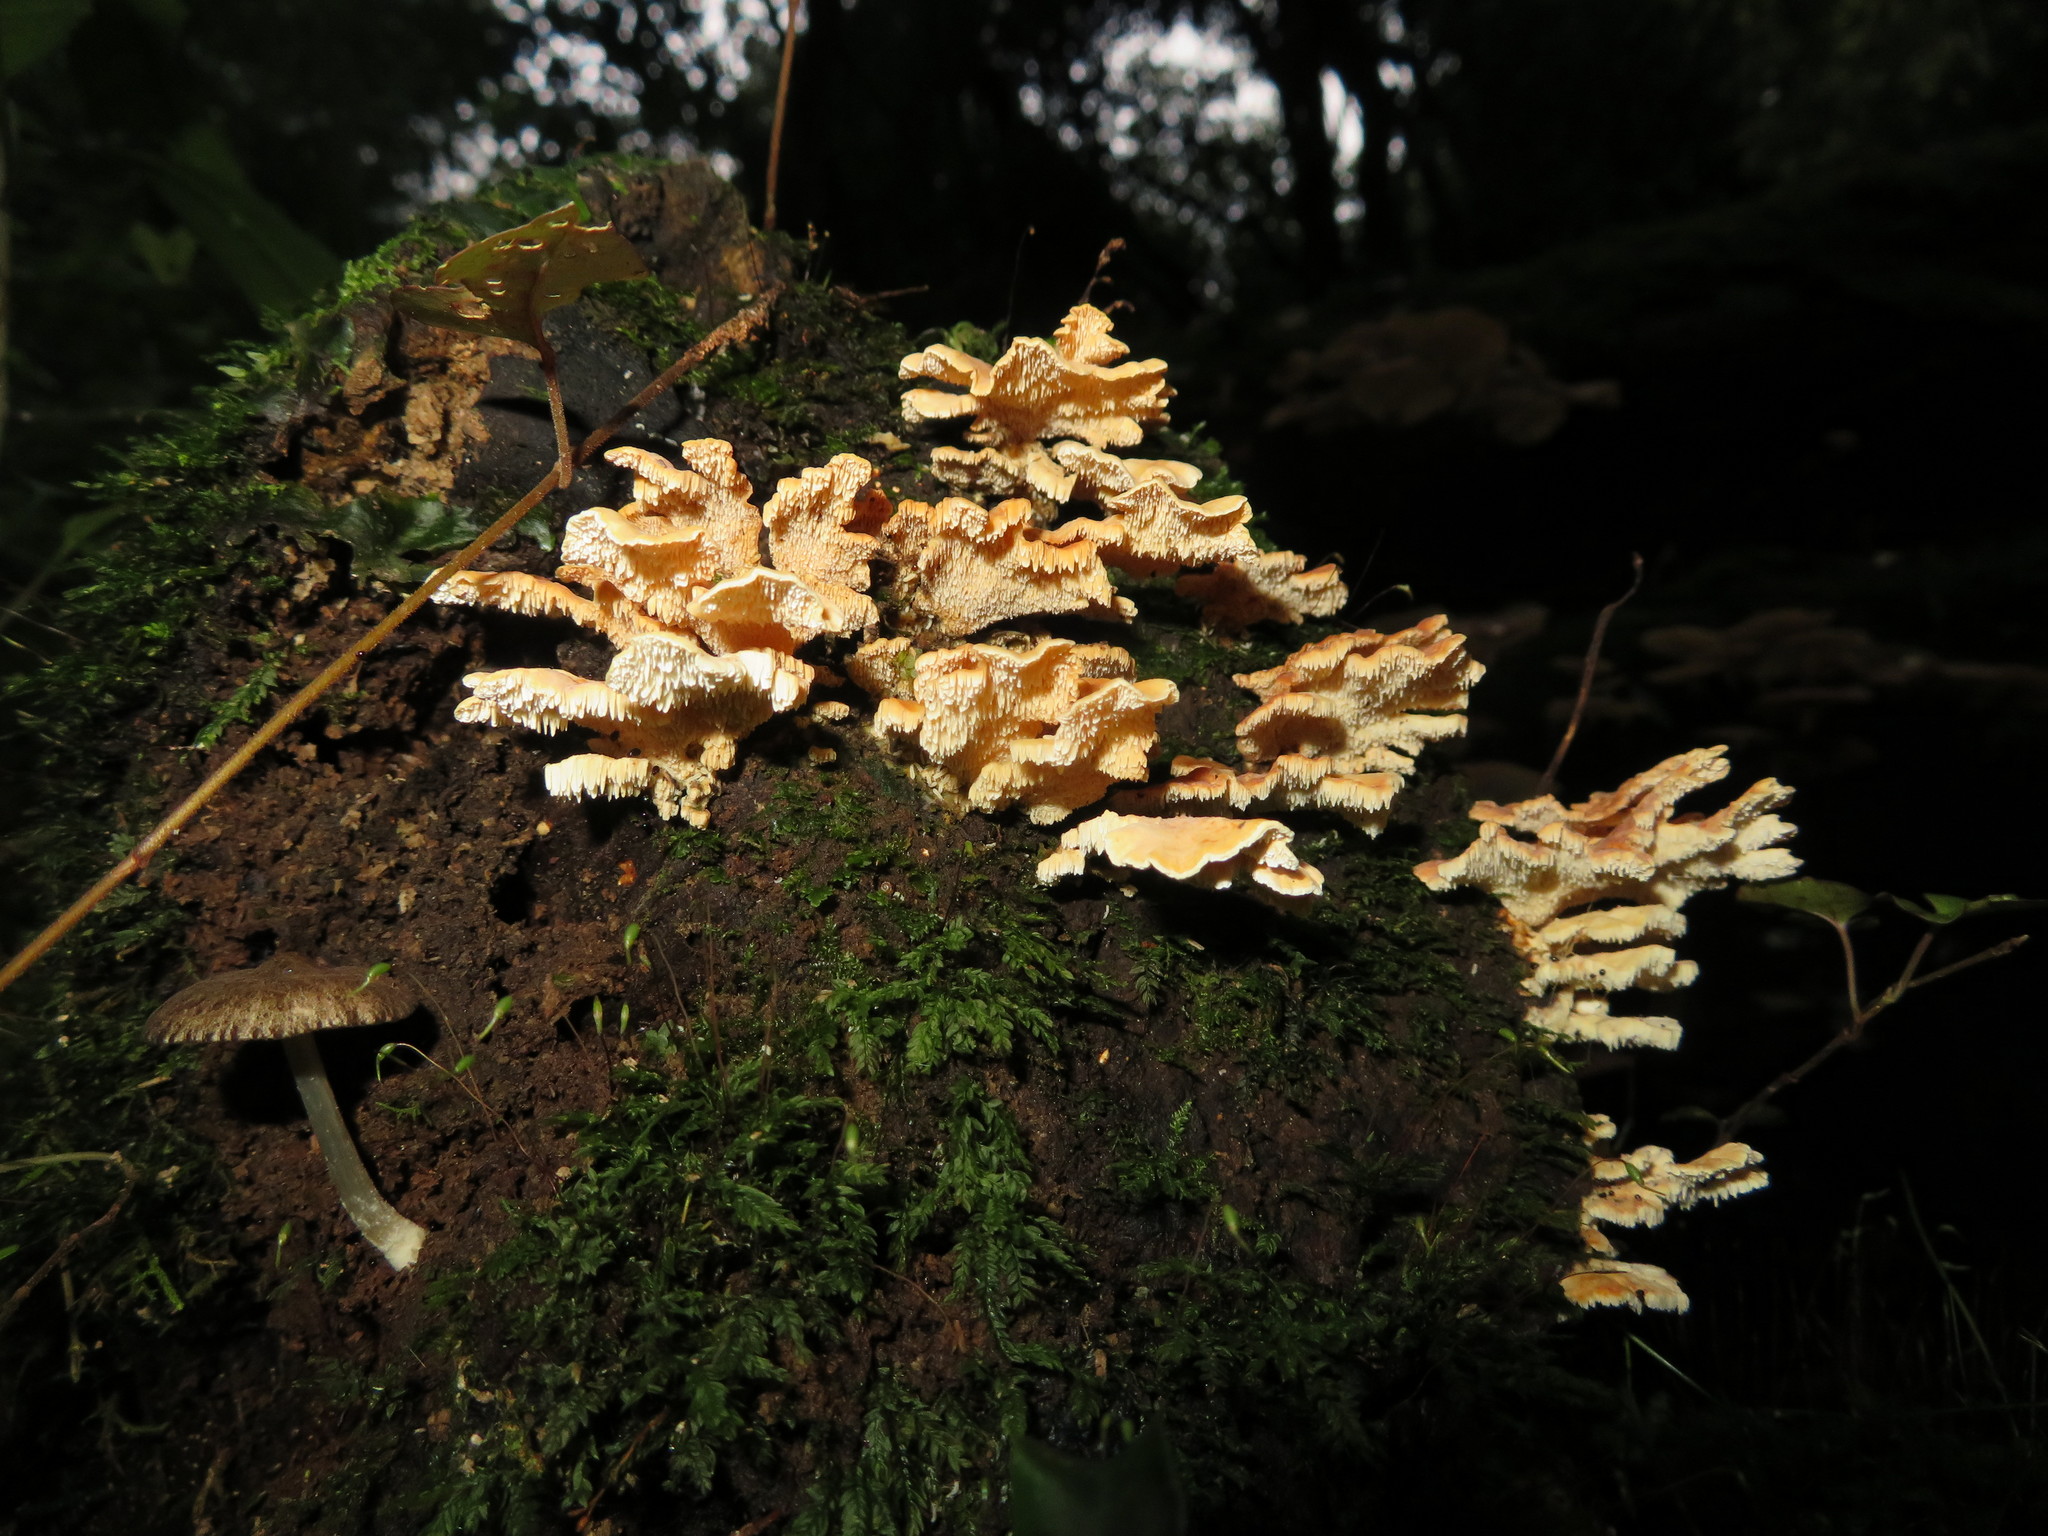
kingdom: Fungi
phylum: Basidiomycota
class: Agaricomycetes
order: Polyporales
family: Cerrenaceae
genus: Cerrena
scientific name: Cerrena zonata
